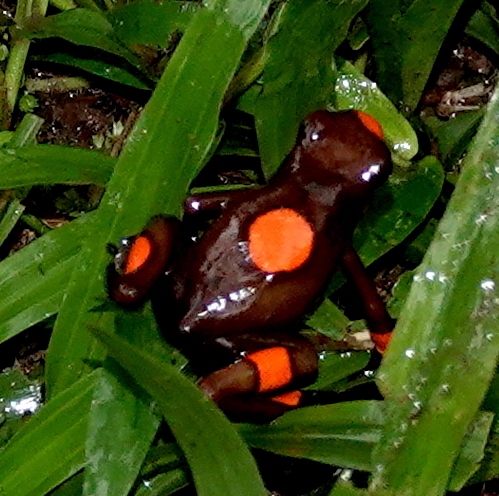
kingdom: Animalia
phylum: Chordata
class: Amphibia
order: Anura
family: Dendrobatidae
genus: Oophaga
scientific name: Oophaga histrionica
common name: Common poison-arrow frog
